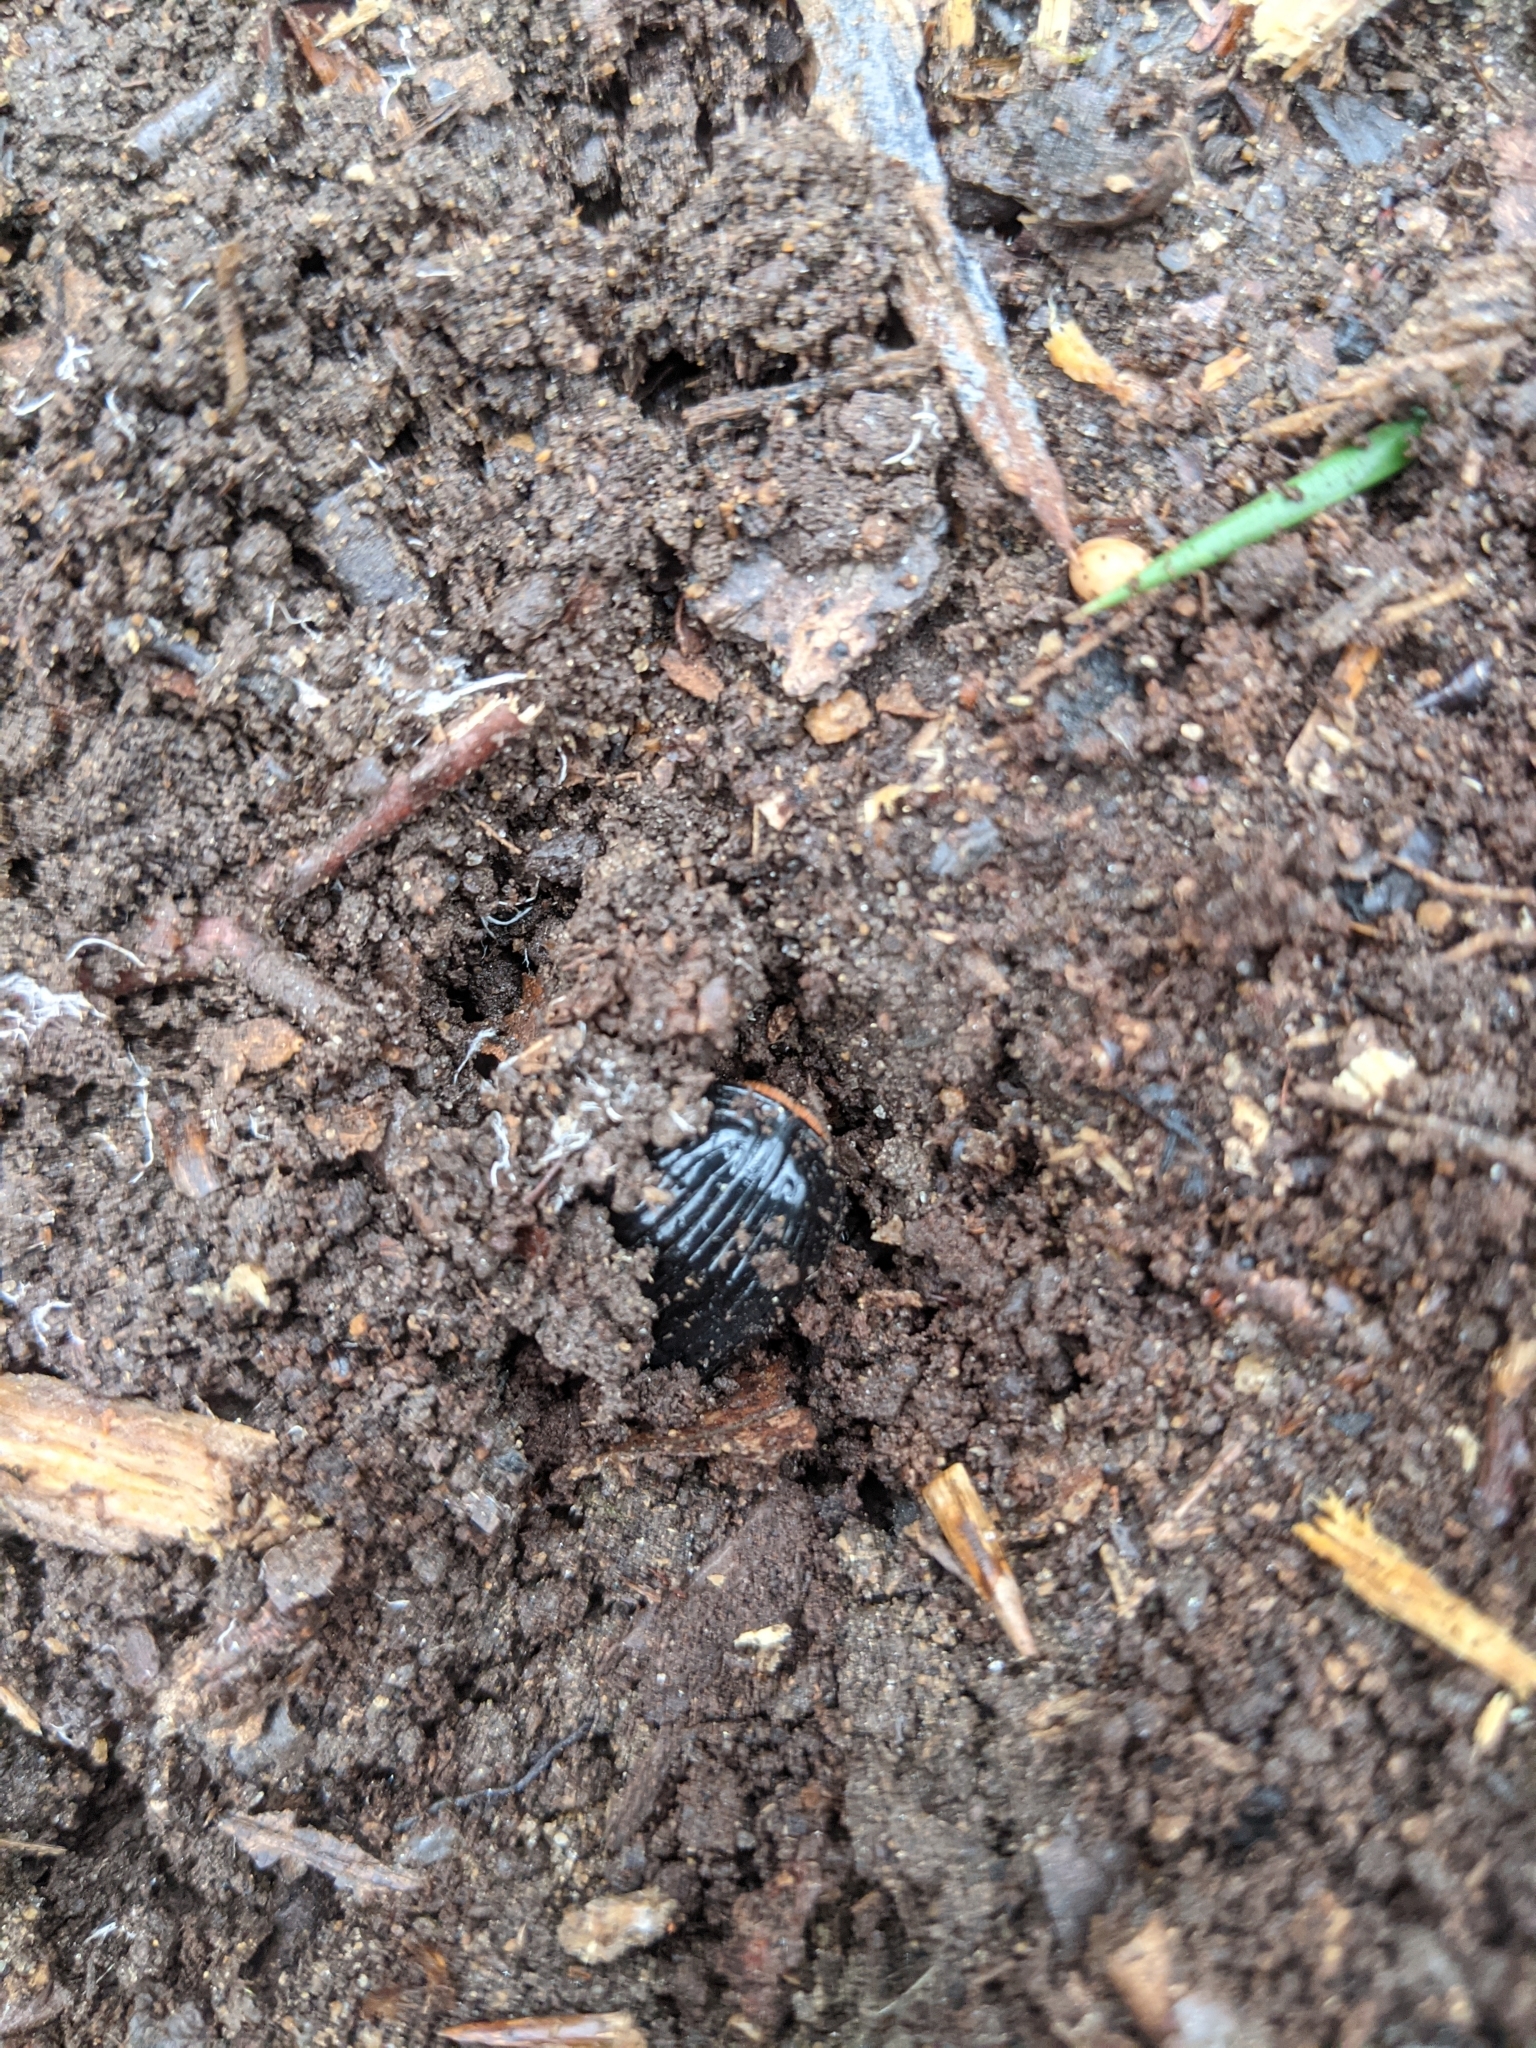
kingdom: Animalia
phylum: Arthropoda
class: Insecta
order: Coleoptera
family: Passalidae
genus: Odontotaenius
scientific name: Odontotaenius disjunctus
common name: Patent leather beetle
